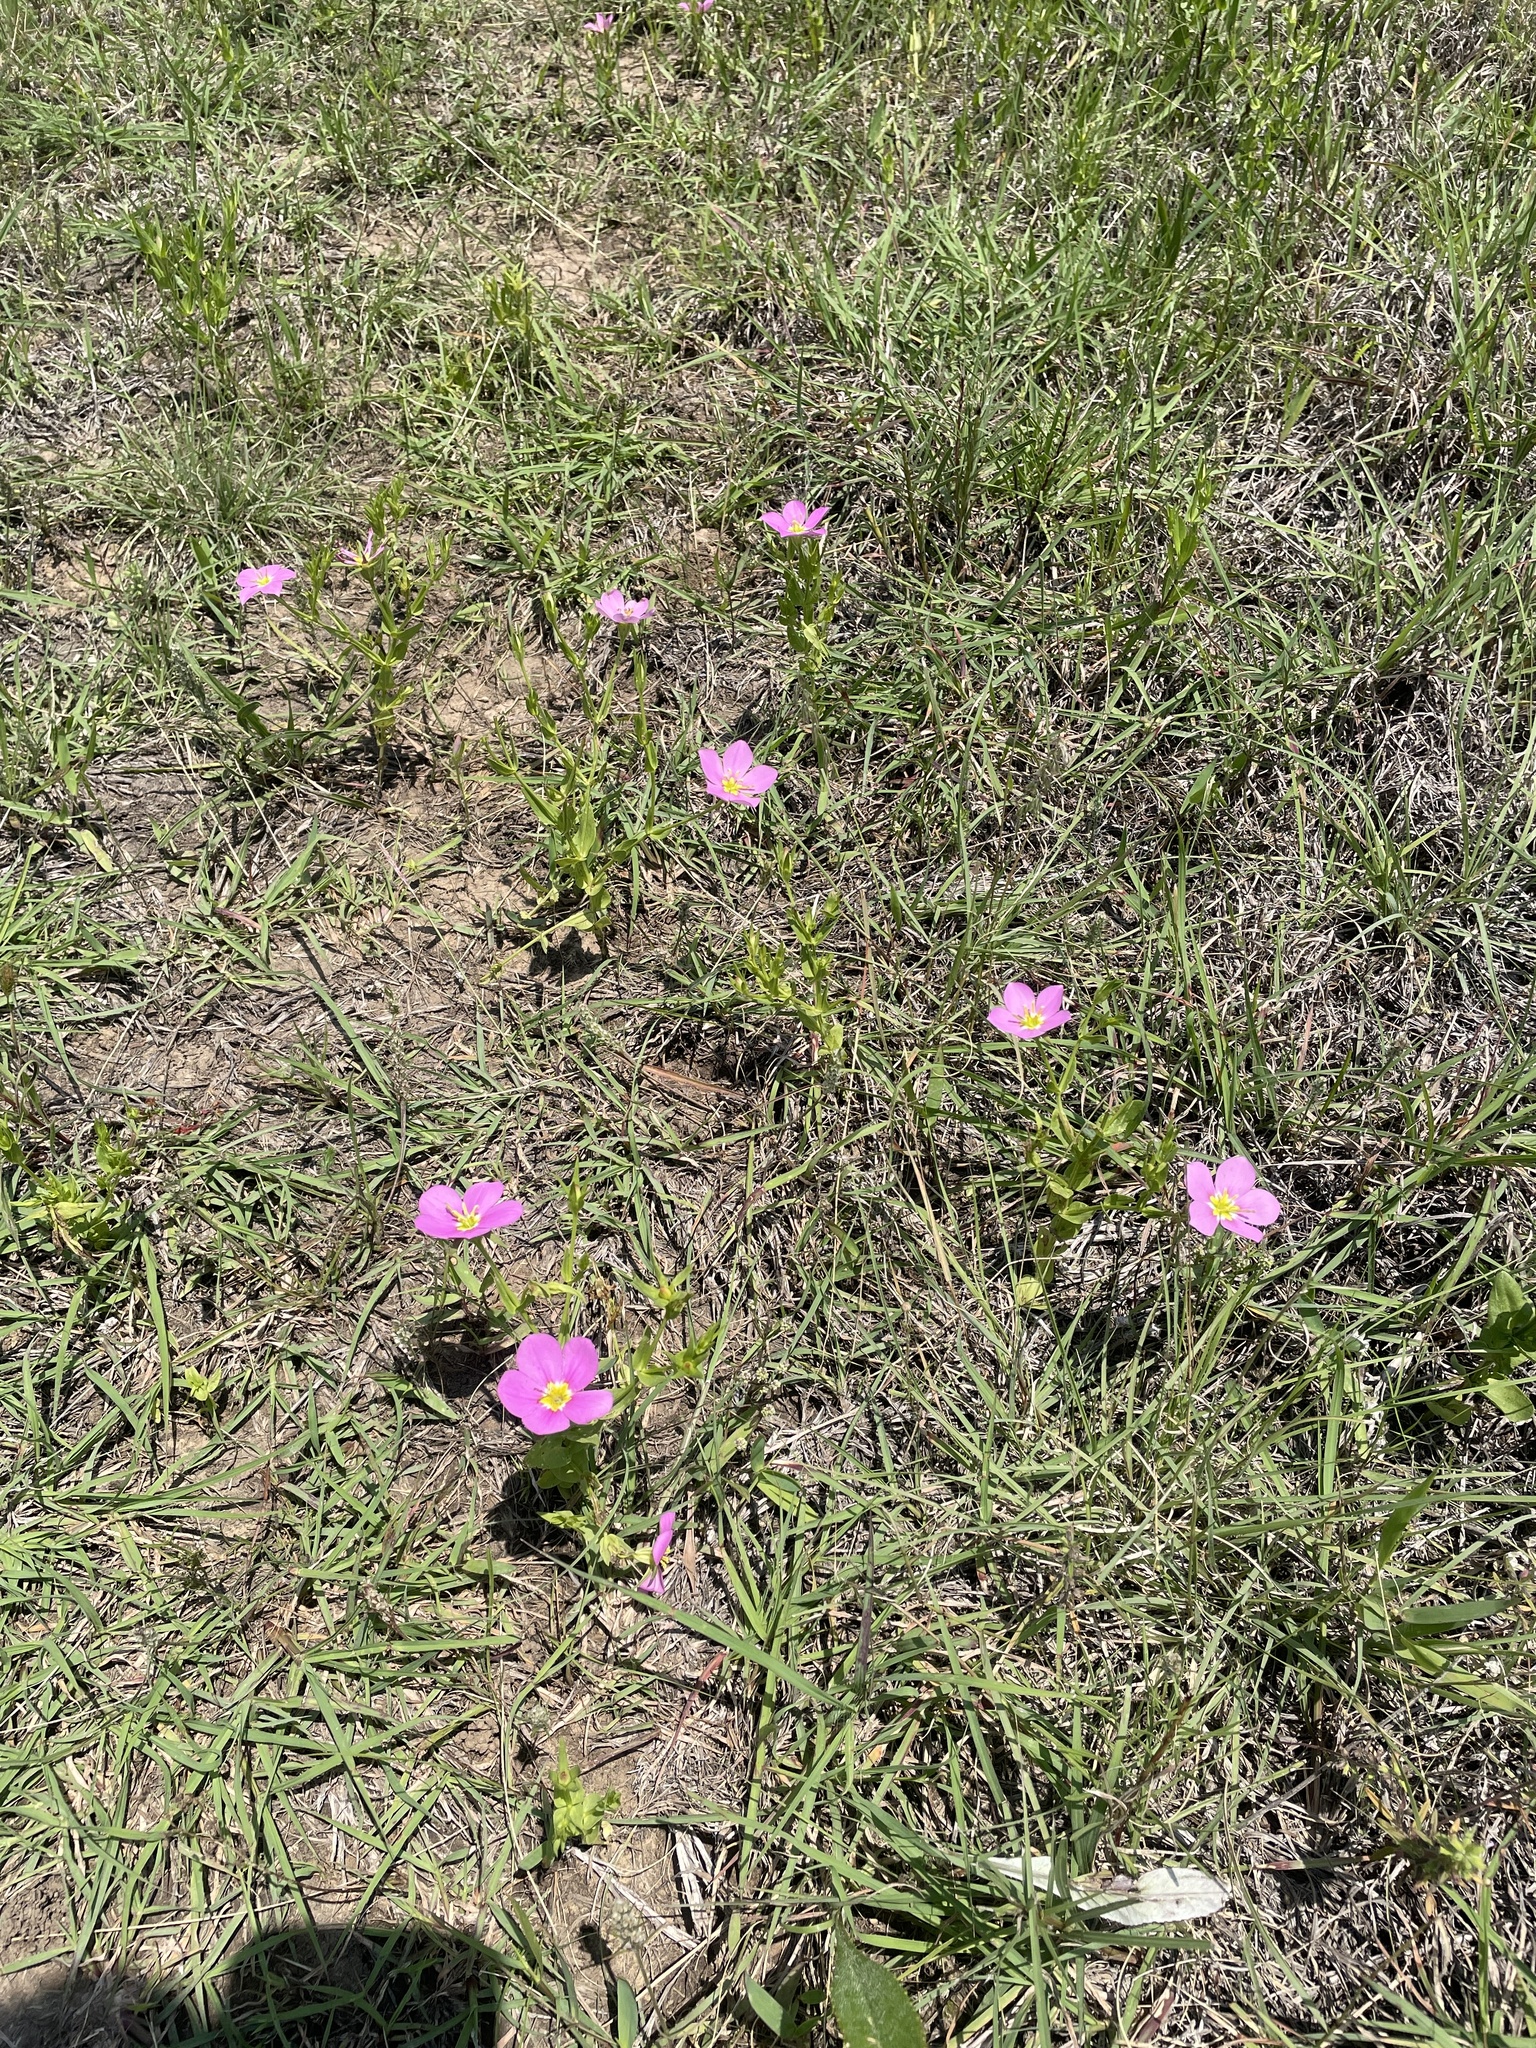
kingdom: Plantae
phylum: Tracheophyta
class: Magnoliopsida
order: Gentianales
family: Gentianaceae
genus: Sabatia
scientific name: Sabatia campestris
